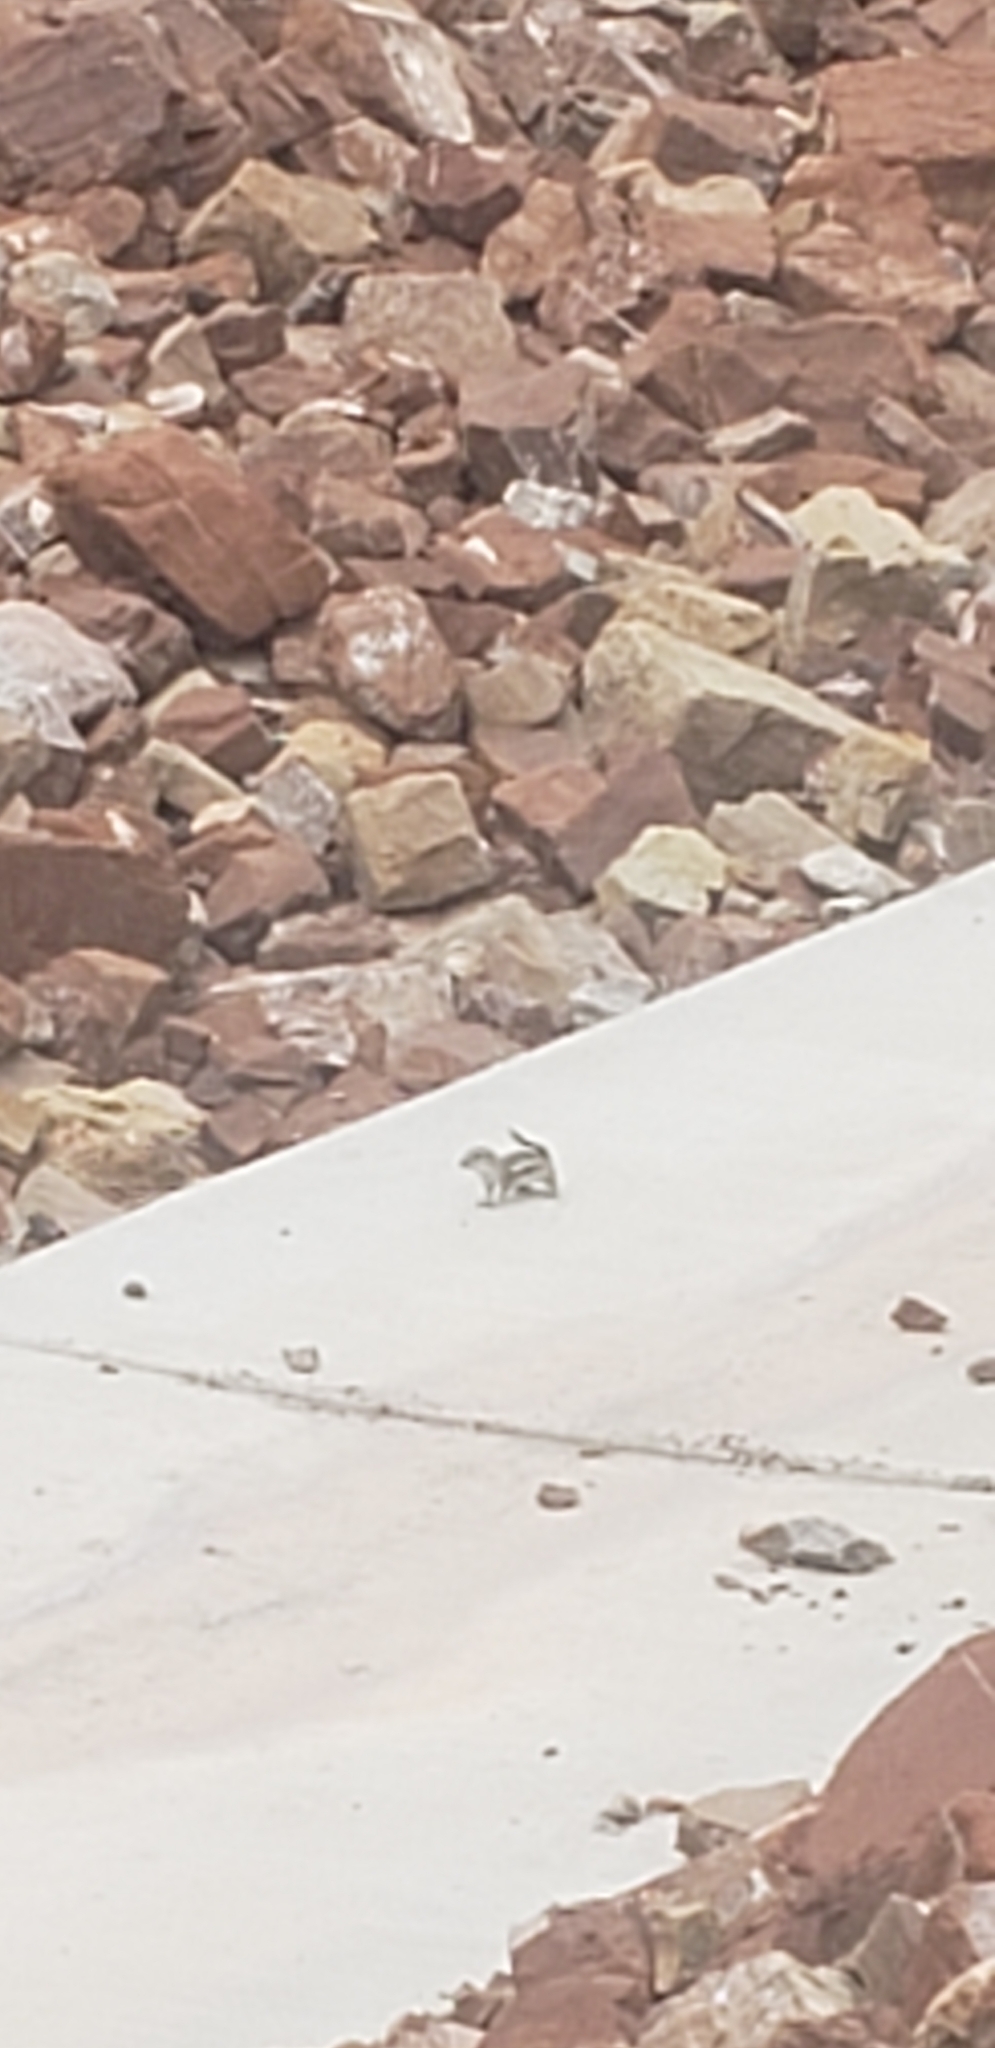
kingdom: Animalia
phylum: Chordata
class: Mammalia
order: Rodentia
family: Sciuridae
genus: Ammospermophilus
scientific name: Ammospermophilus leucurus
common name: White-tailed antelope squirrel
